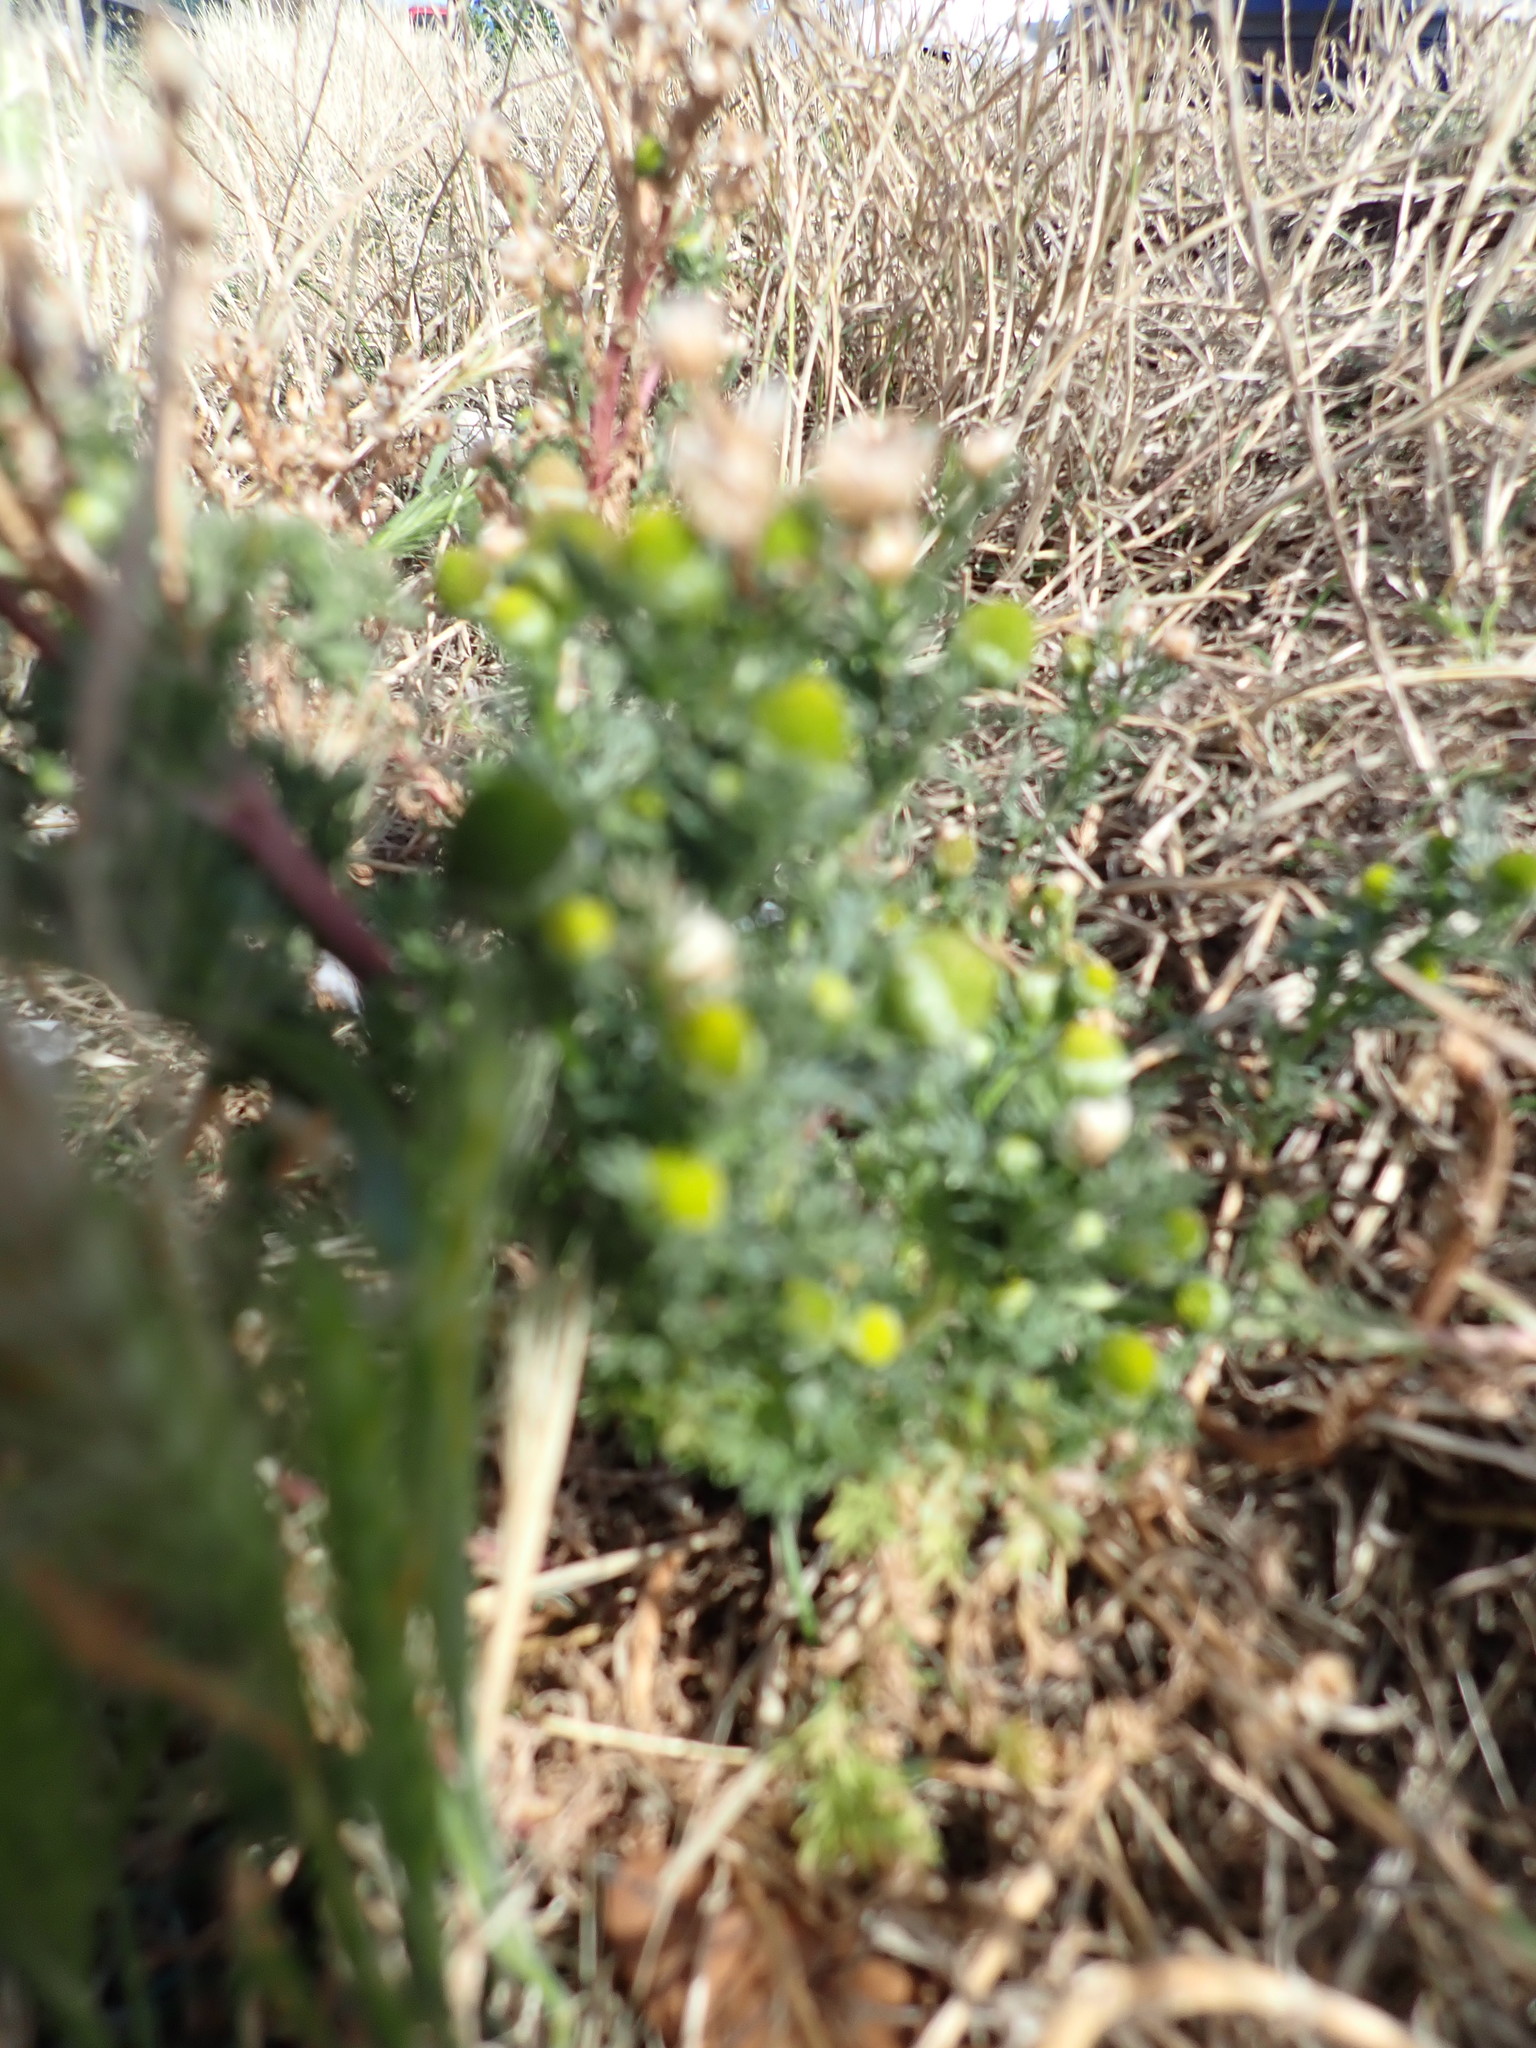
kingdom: Plantae
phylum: Tracheophyta
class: Magnoliopsida
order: Asterales
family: Asteraceae
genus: Matricaria
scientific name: Matricaria discoidea
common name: Disc mayweed
